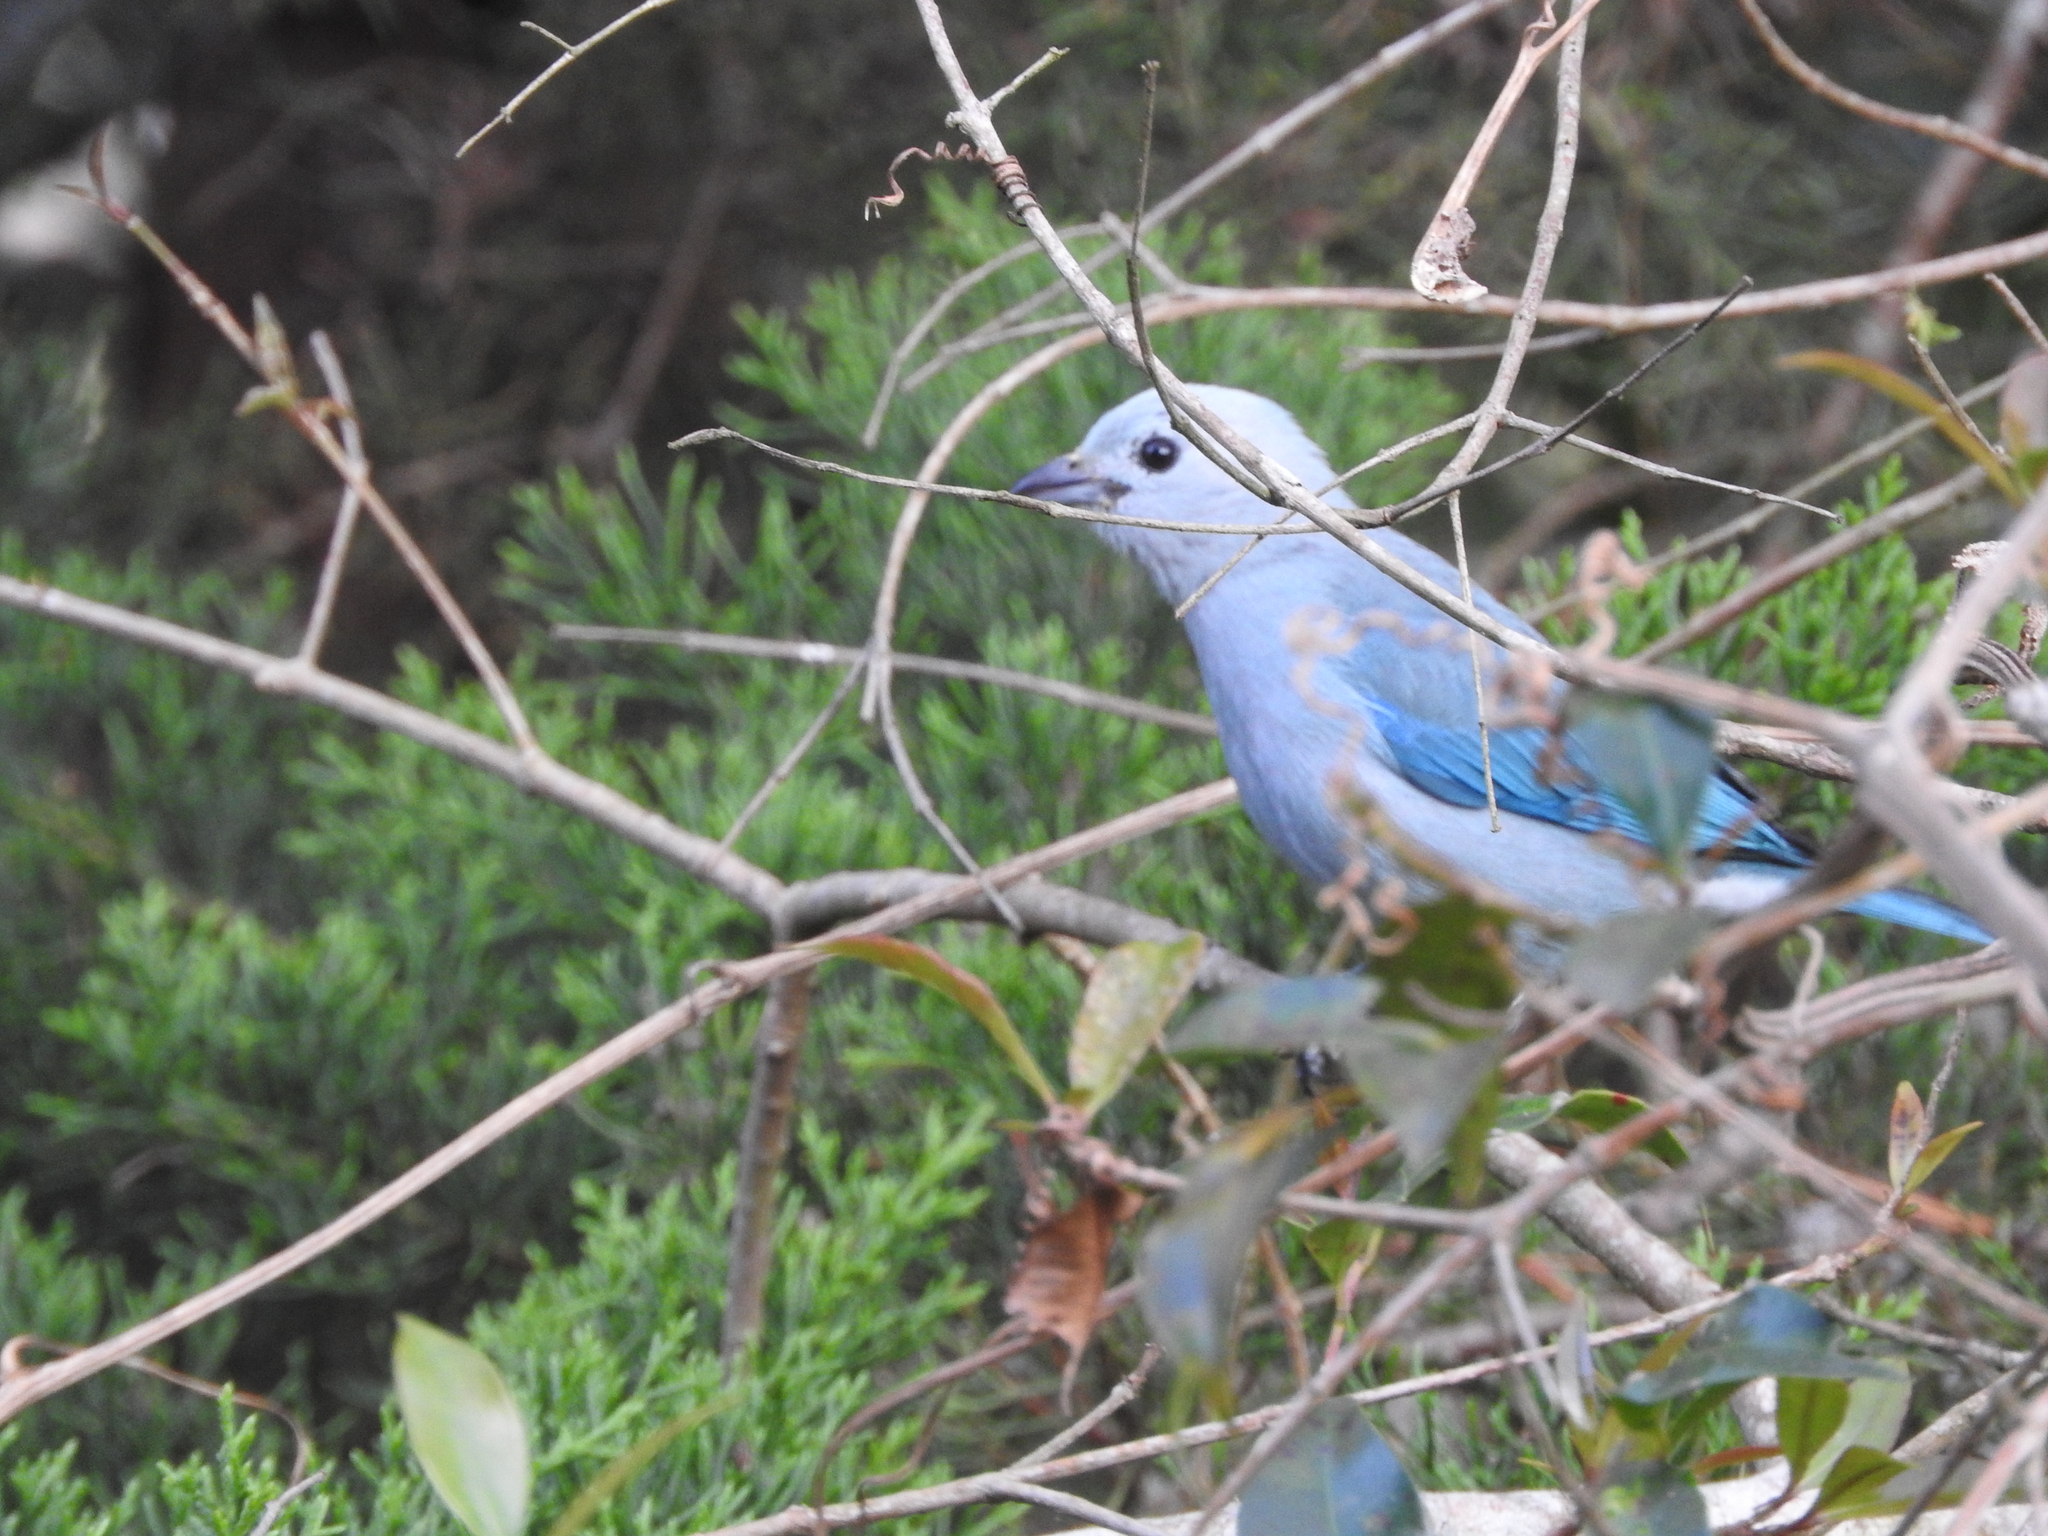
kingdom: Animalia
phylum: Chordata
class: Aves
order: Passeriformes
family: Thraupidae
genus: Thraupis
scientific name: Thraupis episcopus
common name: Blue-grey tanager
